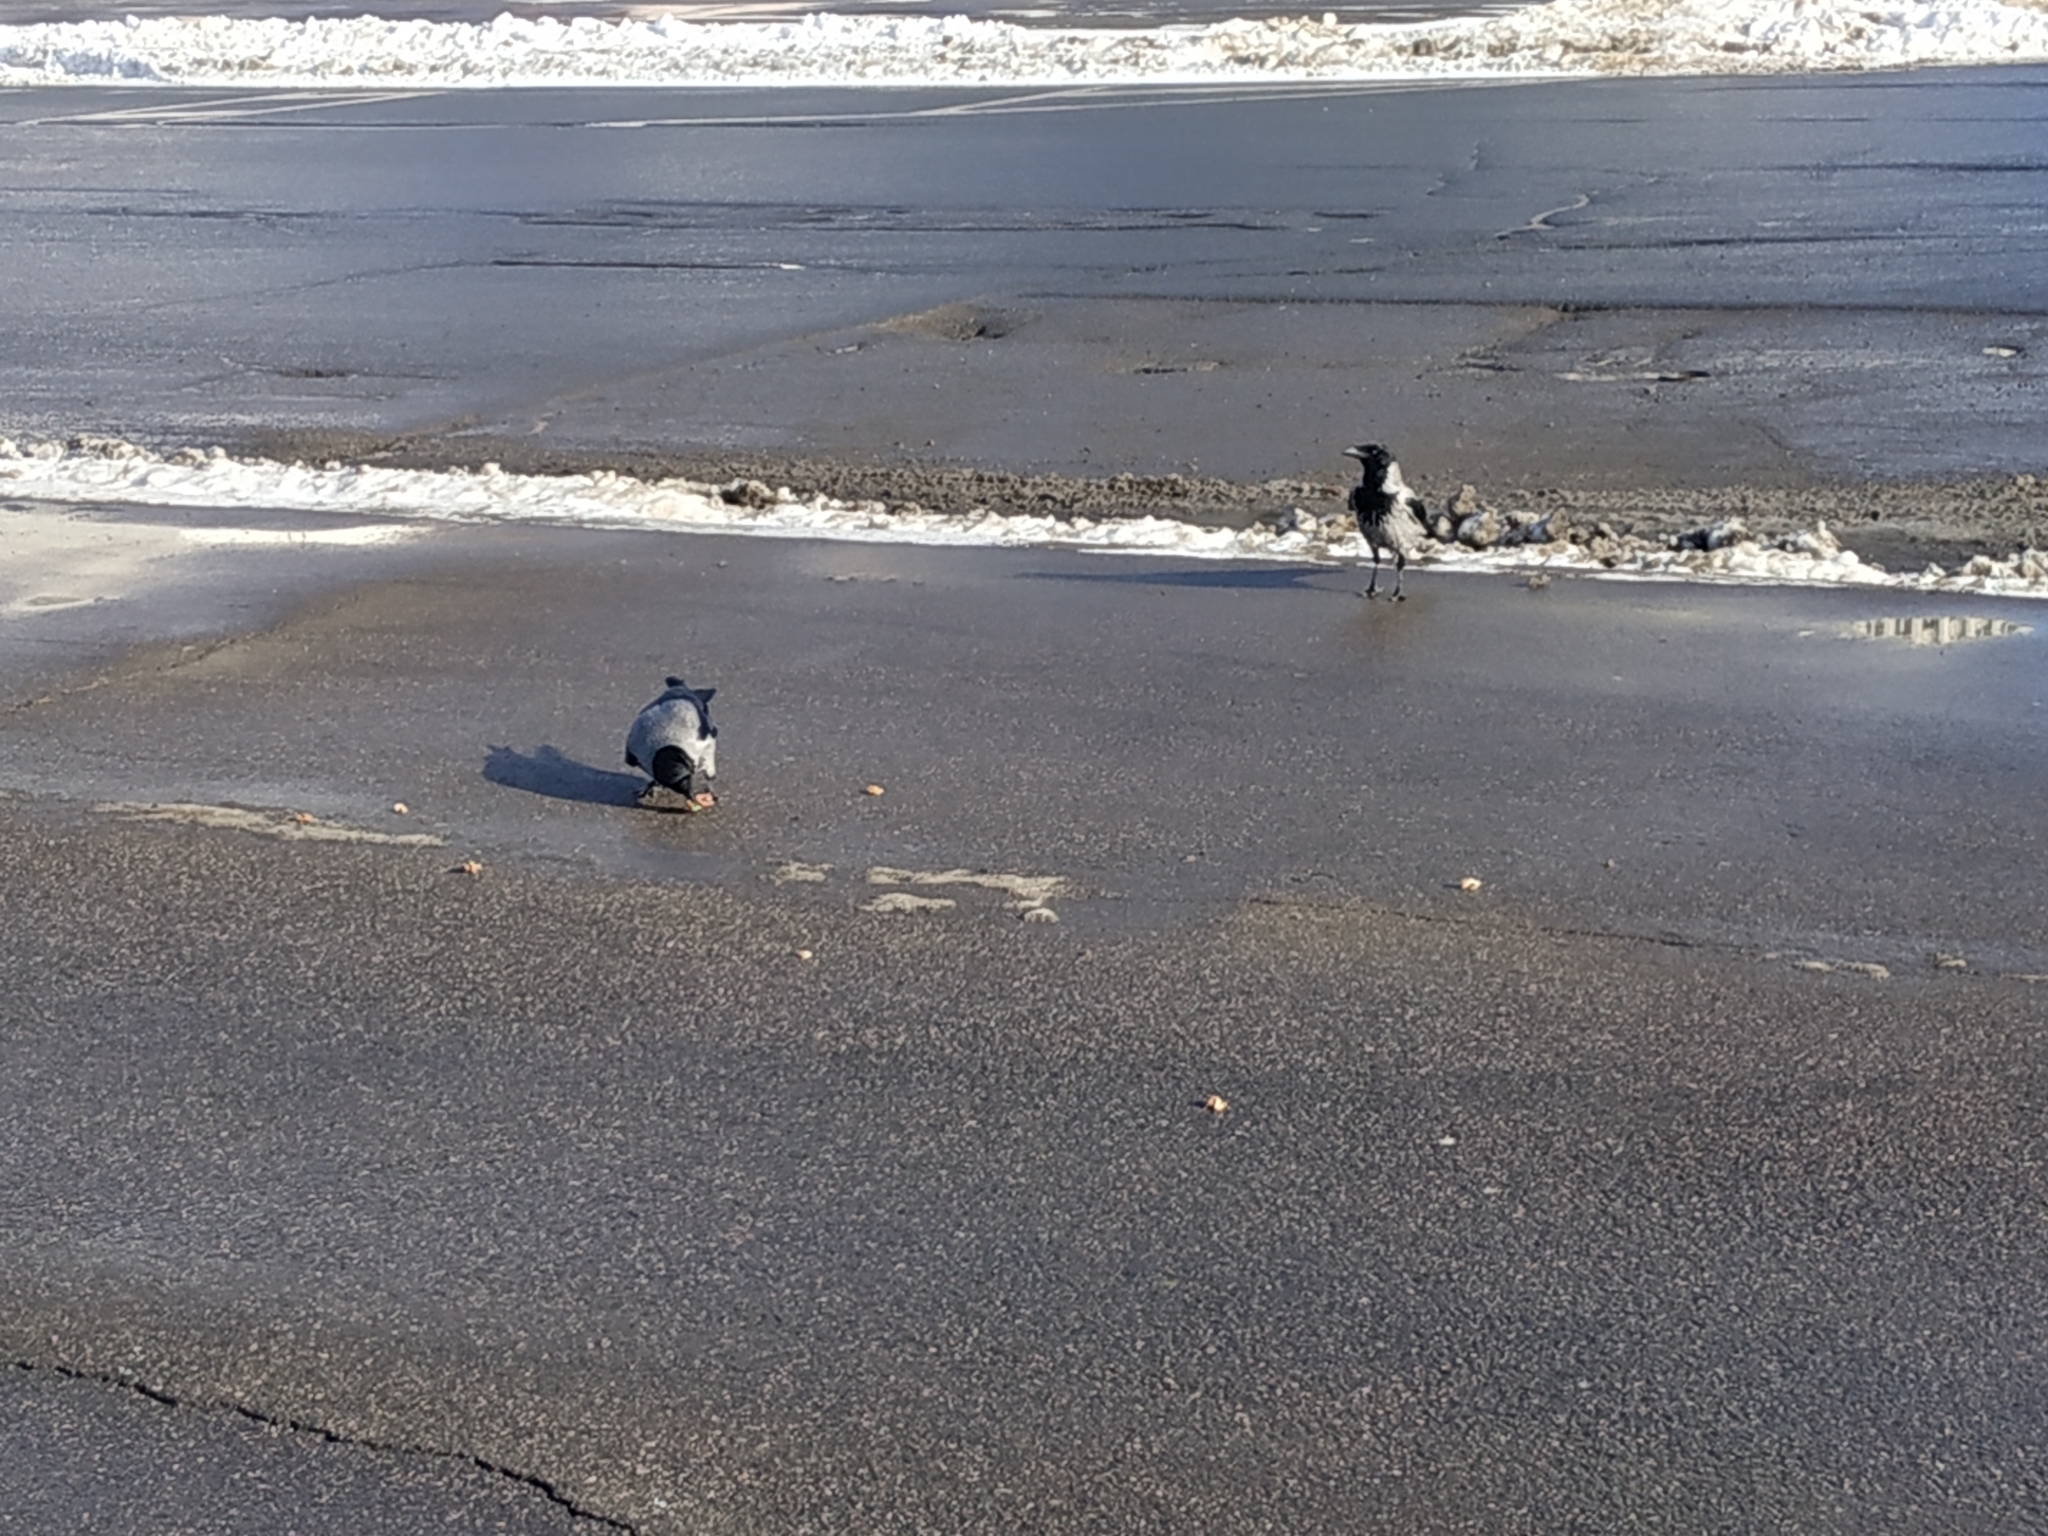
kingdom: Animalia
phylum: Chordata
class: Aves
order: Passeriformes
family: Corvidae
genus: Corvus
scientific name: Corvus cornix
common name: Hooded crow
